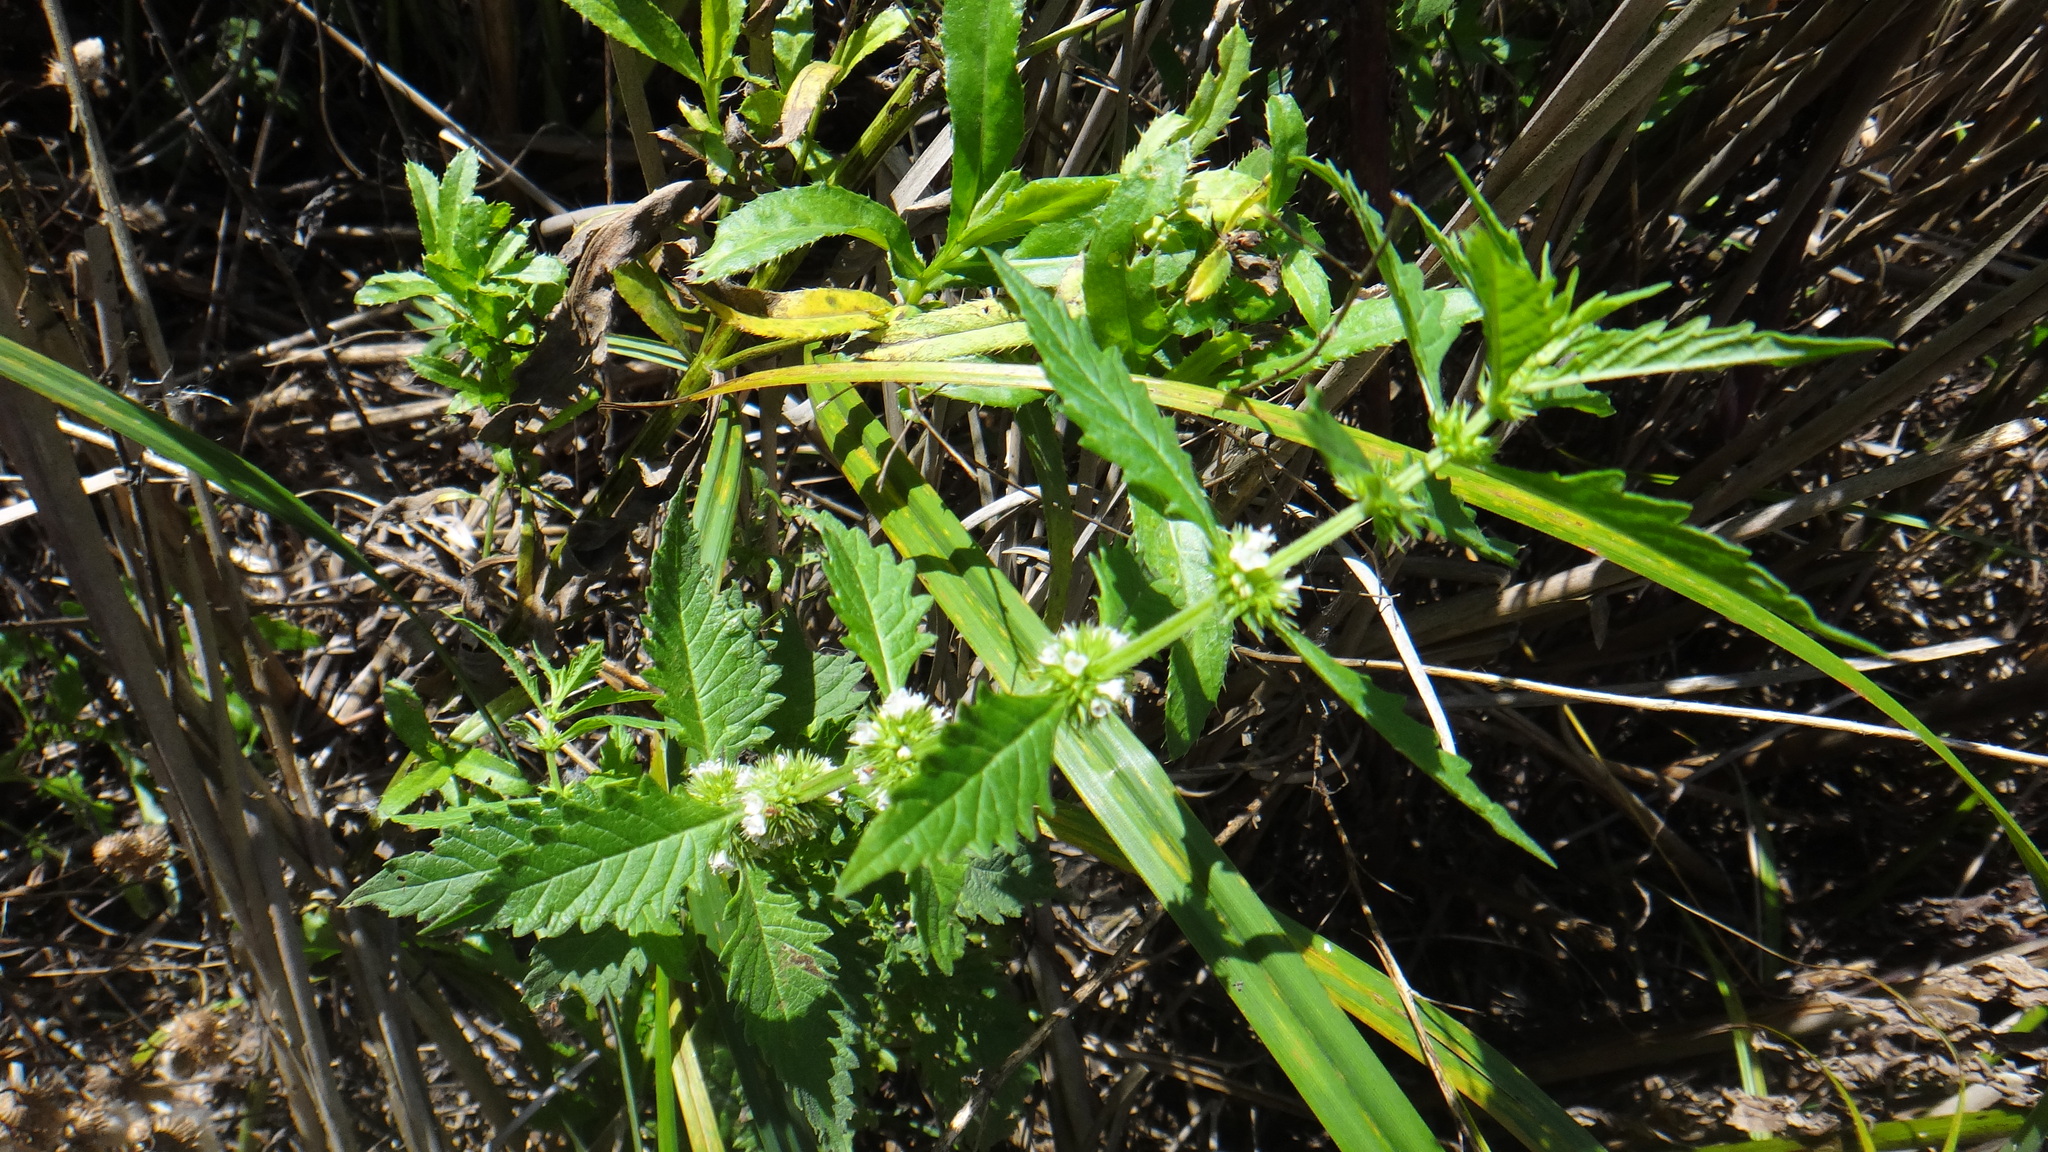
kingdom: Plantae
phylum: Tracheophyta
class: Magnoliopsida
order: Lamiales
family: Lamiaceae
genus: Lycopus
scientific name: Lycopus europaeus
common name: European bugleweed
